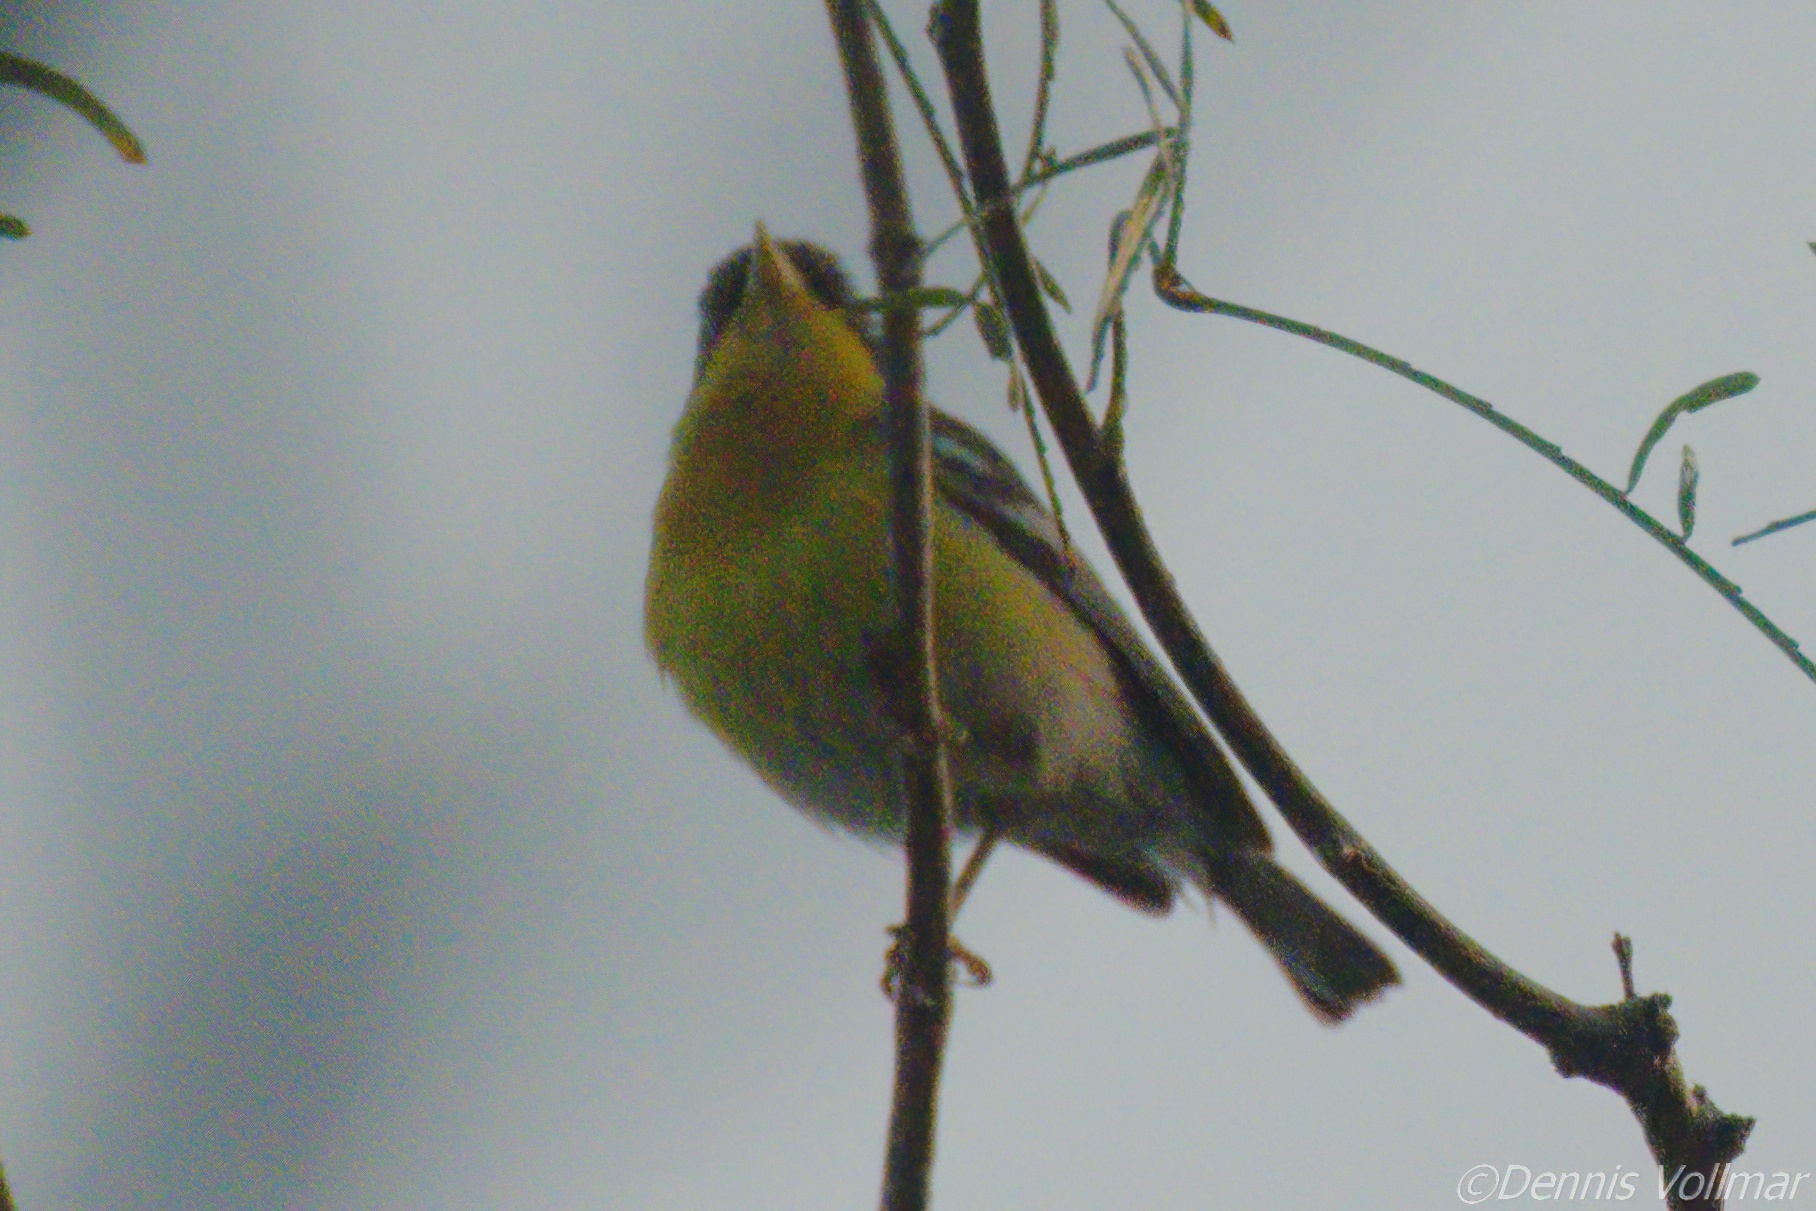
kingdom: Animalia
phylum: Chordata
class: Aves
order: Passeriformes
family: Parulidae
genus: Setophaga
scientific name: Setophaga pitiayumi
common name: Tropical parula
